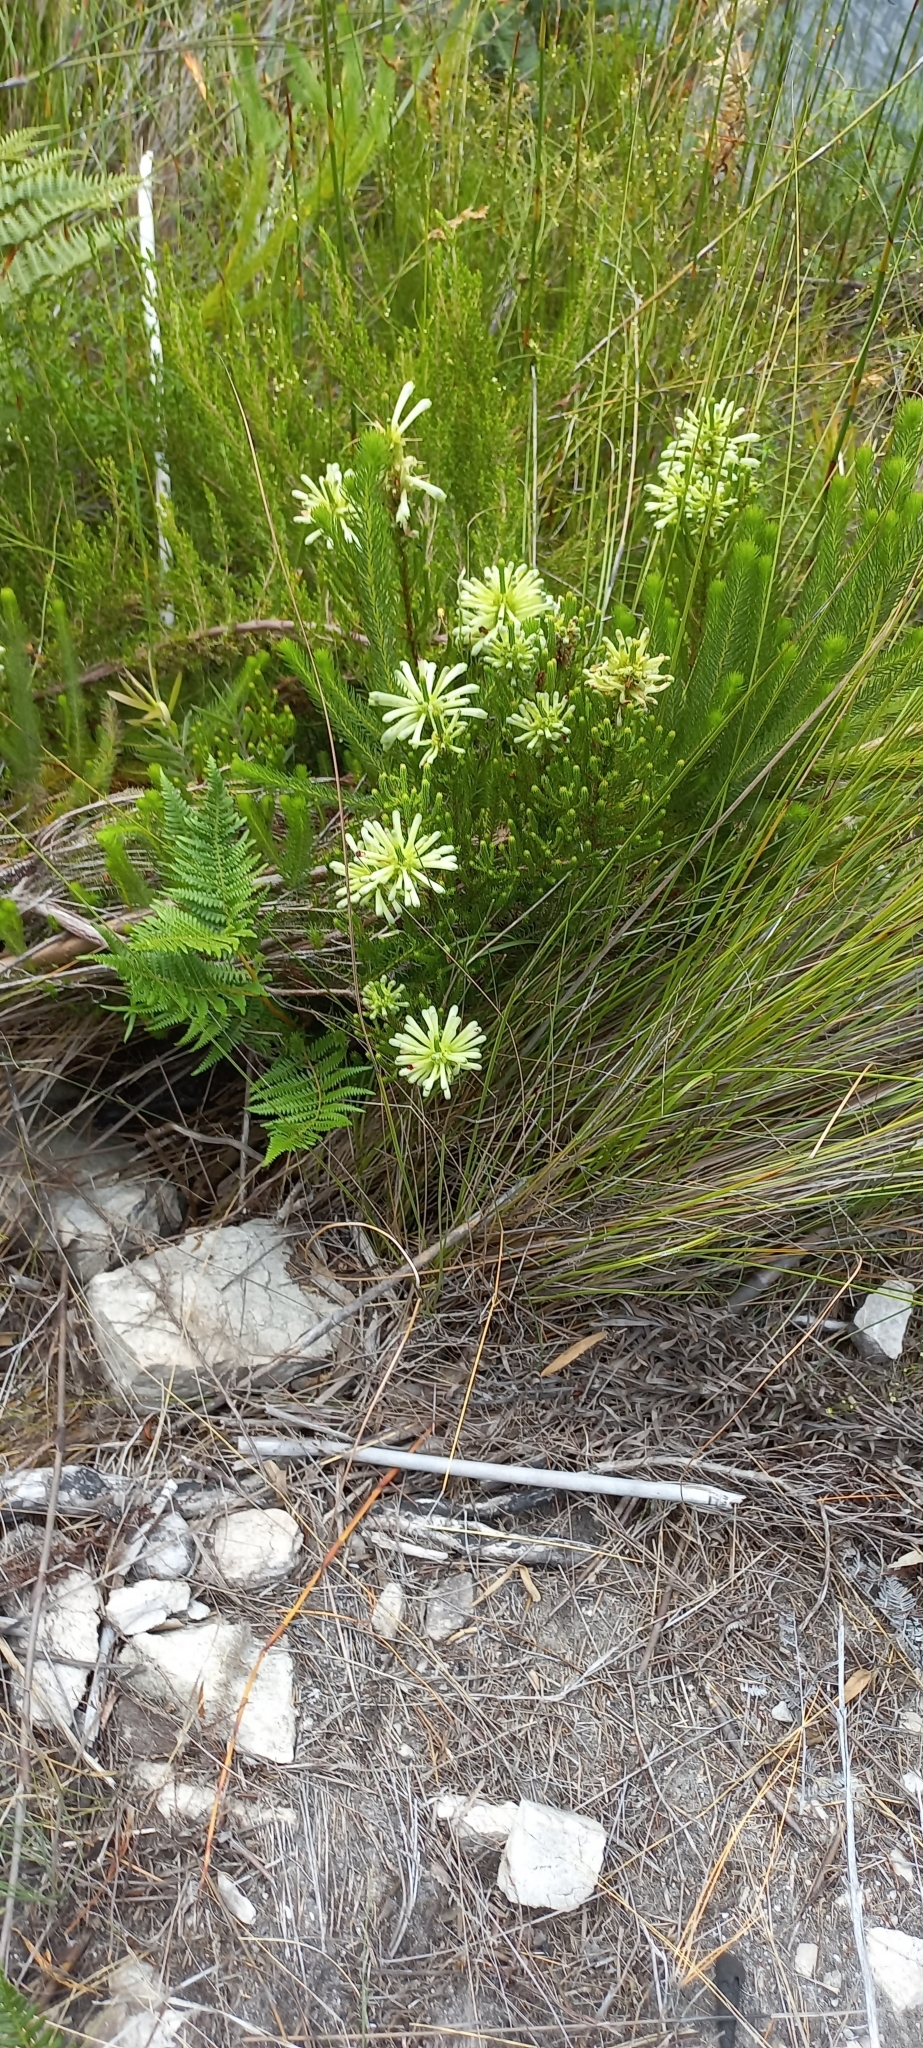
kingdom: Plantae
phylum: Tracheophyta
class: Magnoliopsida
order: Ericales
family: Ericaceae
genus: Erica
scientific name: Erica sessiliflora
